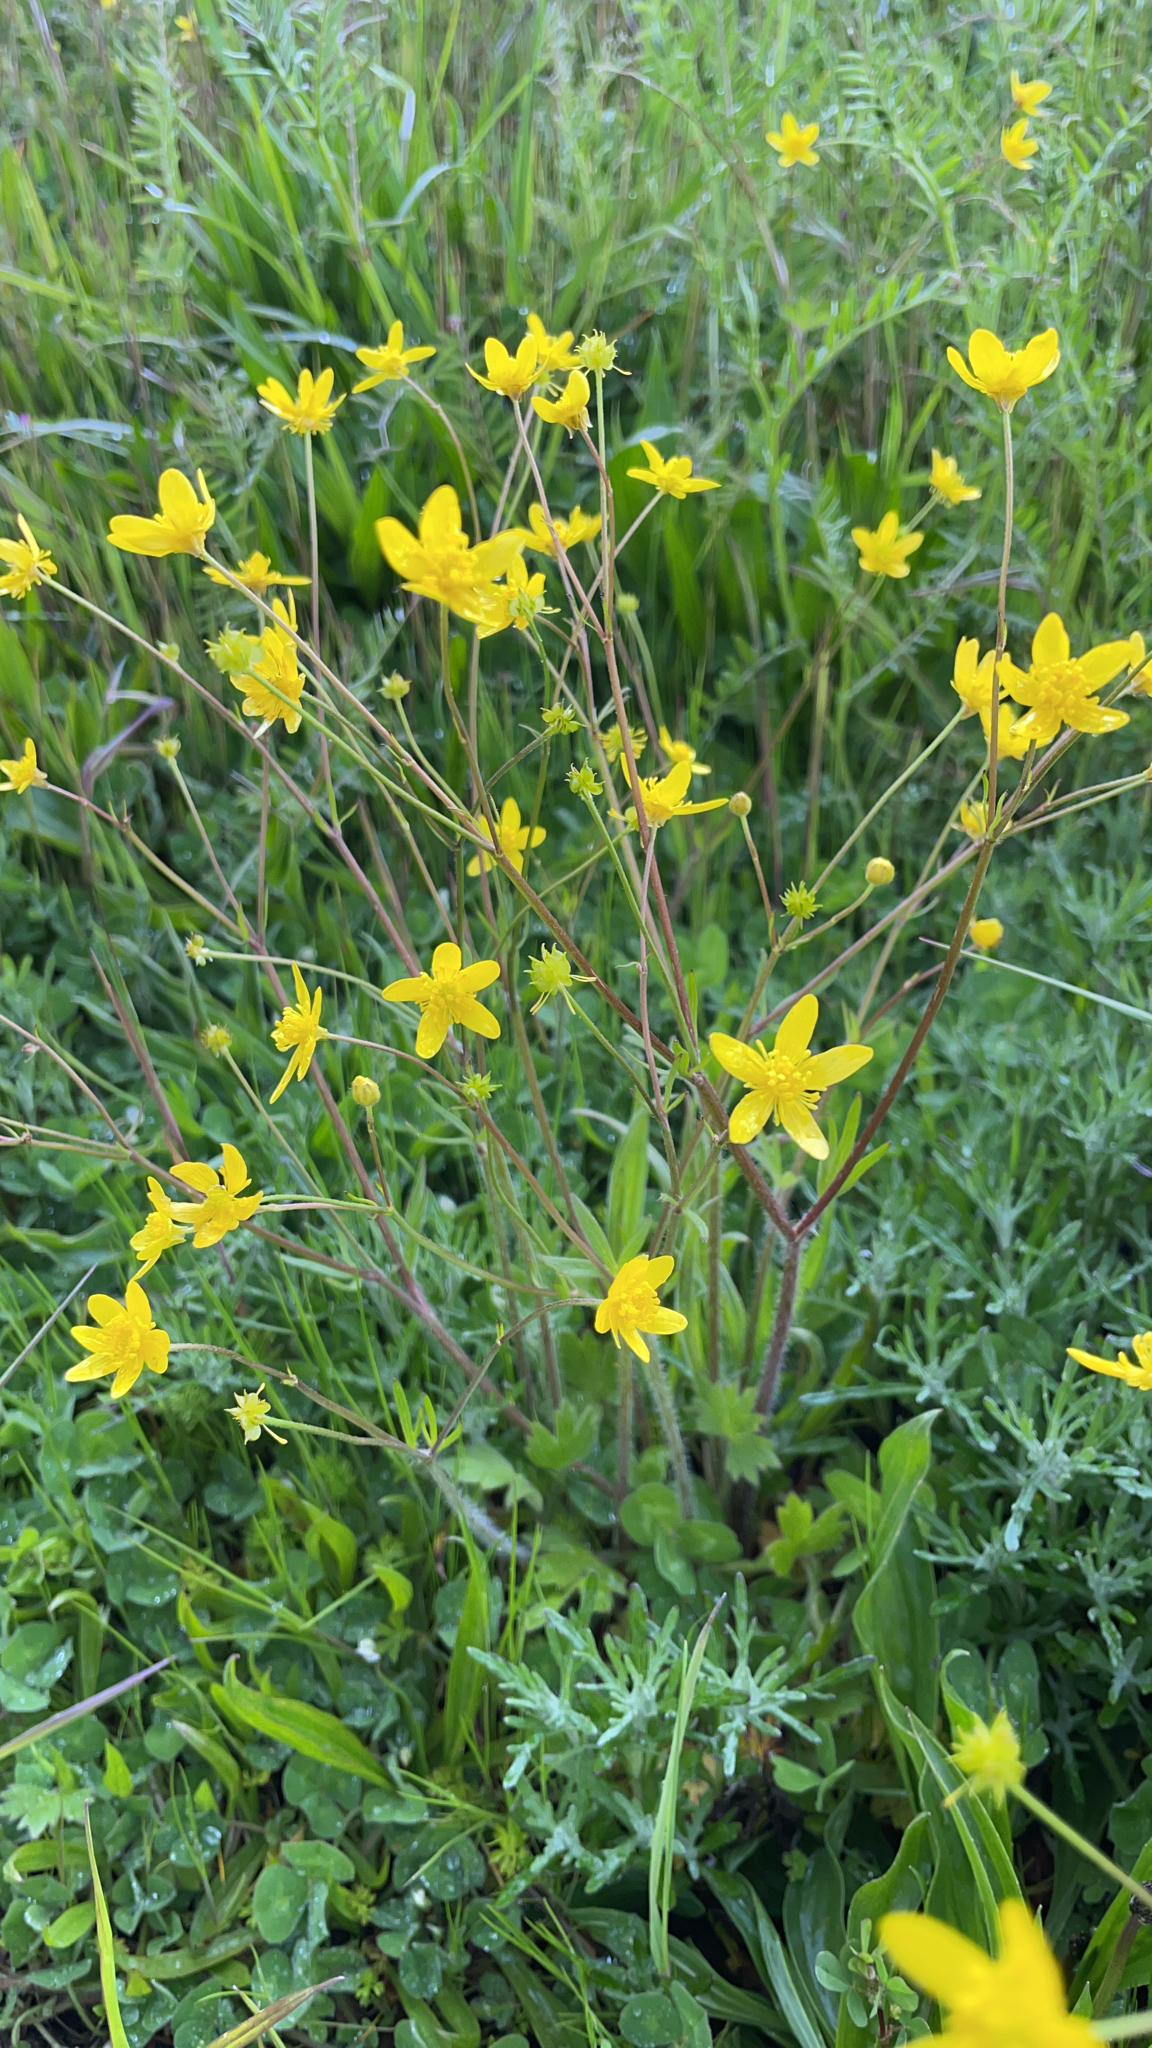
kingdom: Plantae
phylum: Tracheophyta
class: Magnoliopsida
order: Ranunculales
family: Ranunculaceae
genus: Ranunculus
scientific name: Ranunculus occidentalis
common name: Western buttercup
